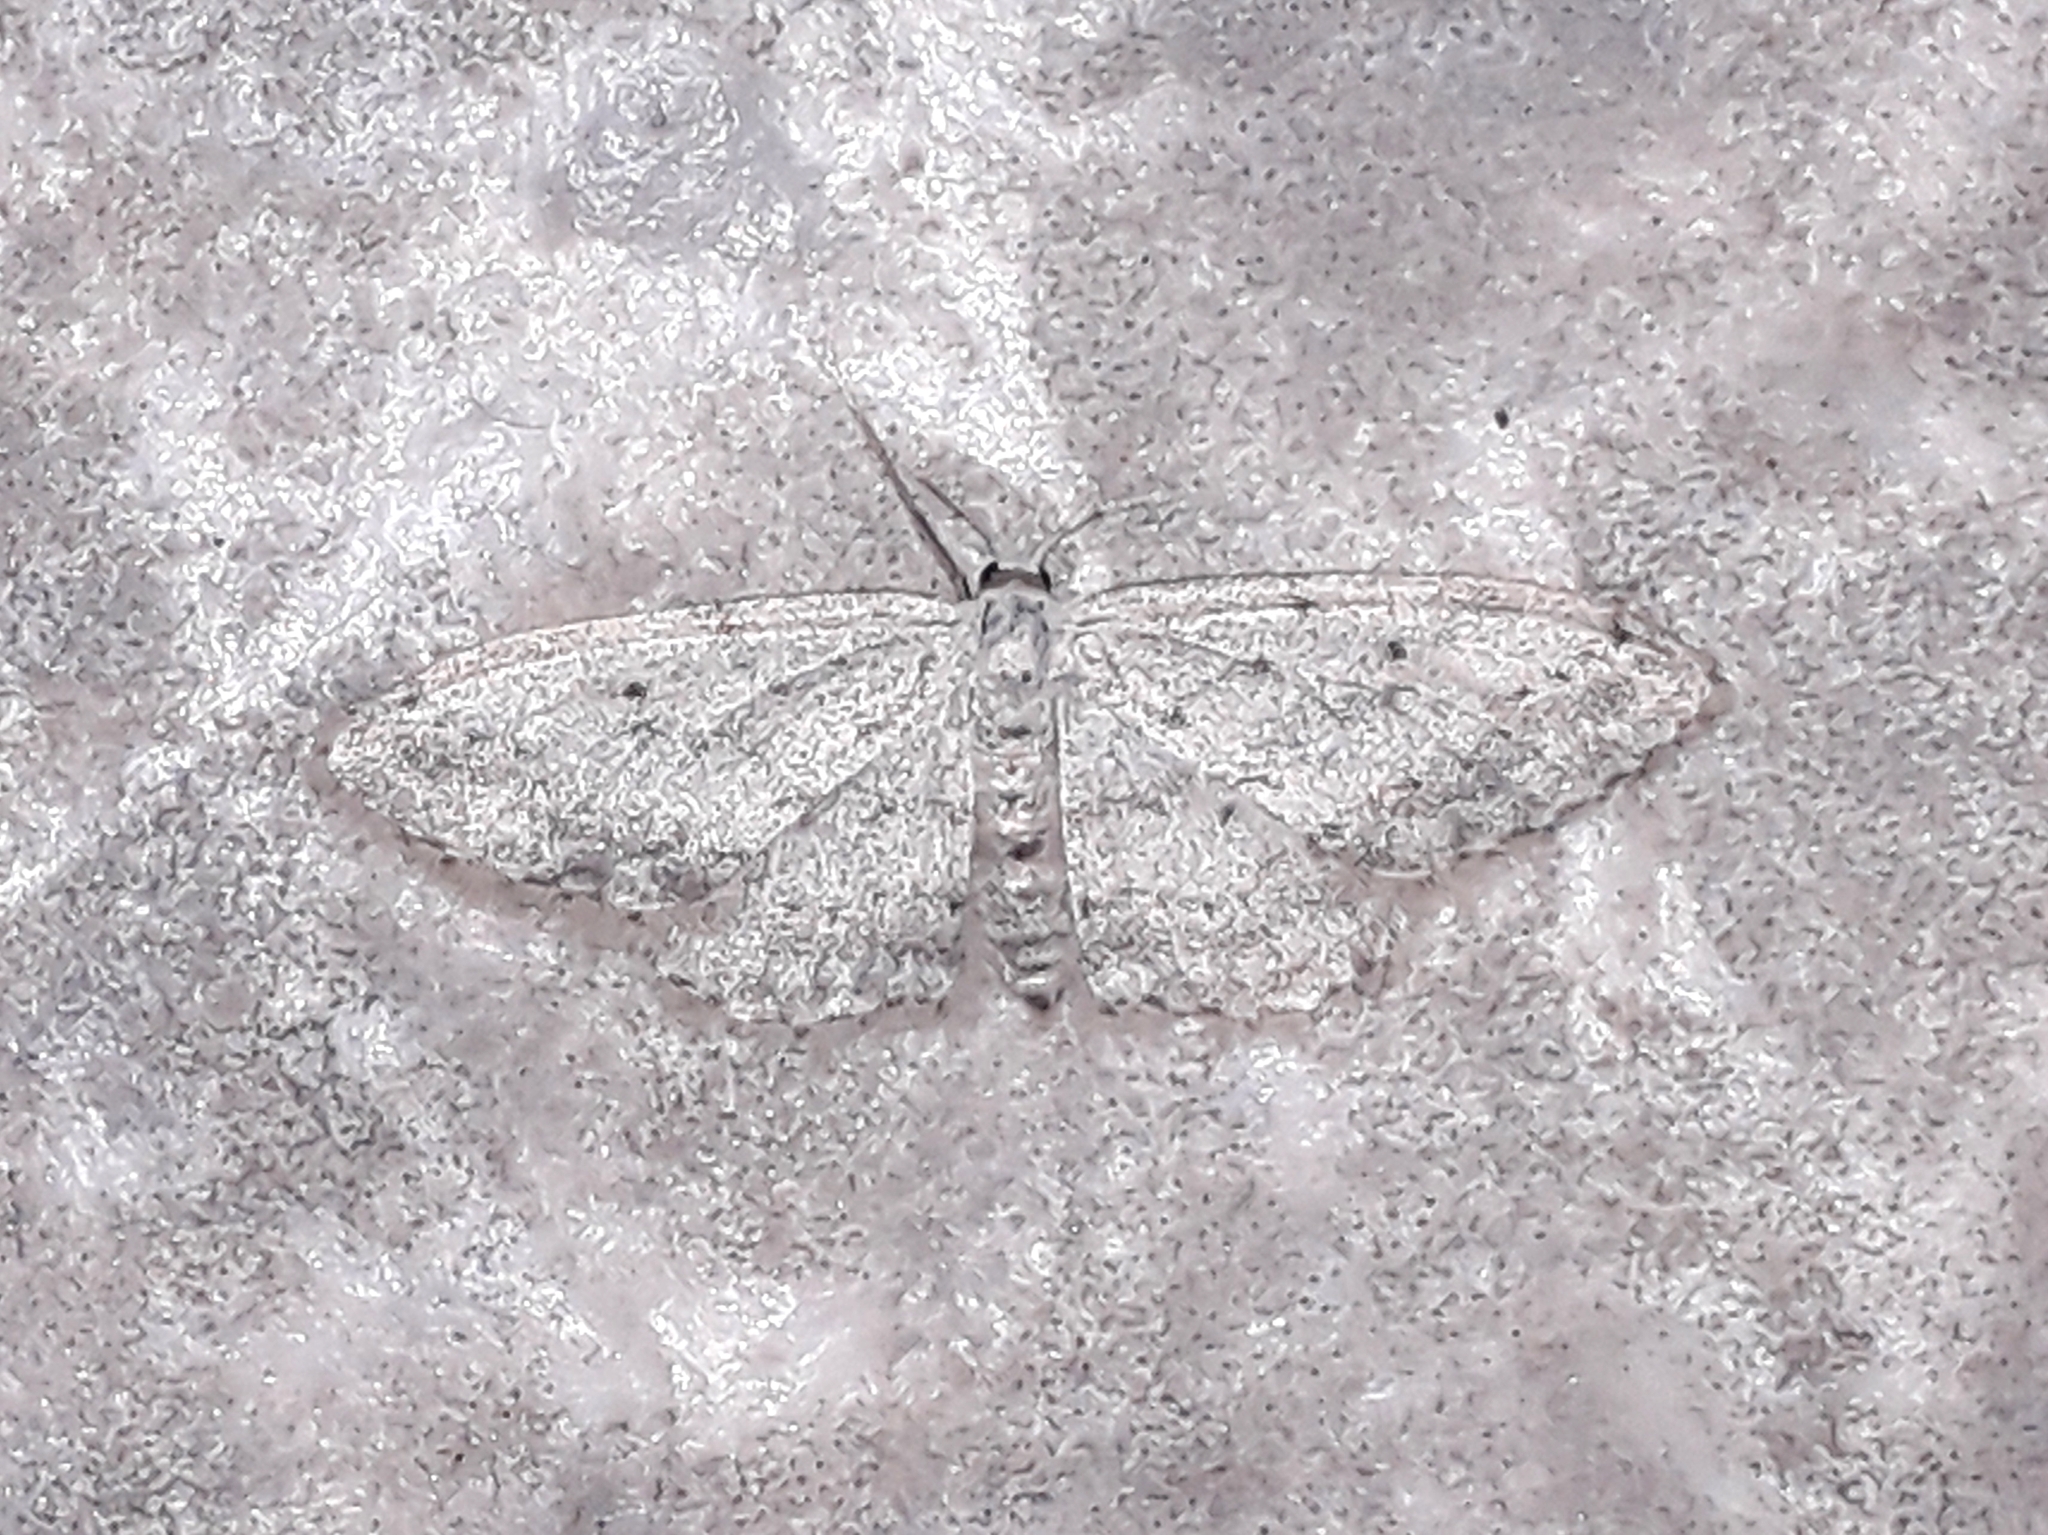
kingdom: Animalia
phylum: Arthropoda
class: Insecta
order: Lepidoptera
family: Geometridae
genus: Idaea
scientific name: Idaea seriata
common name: Small dusty wave
